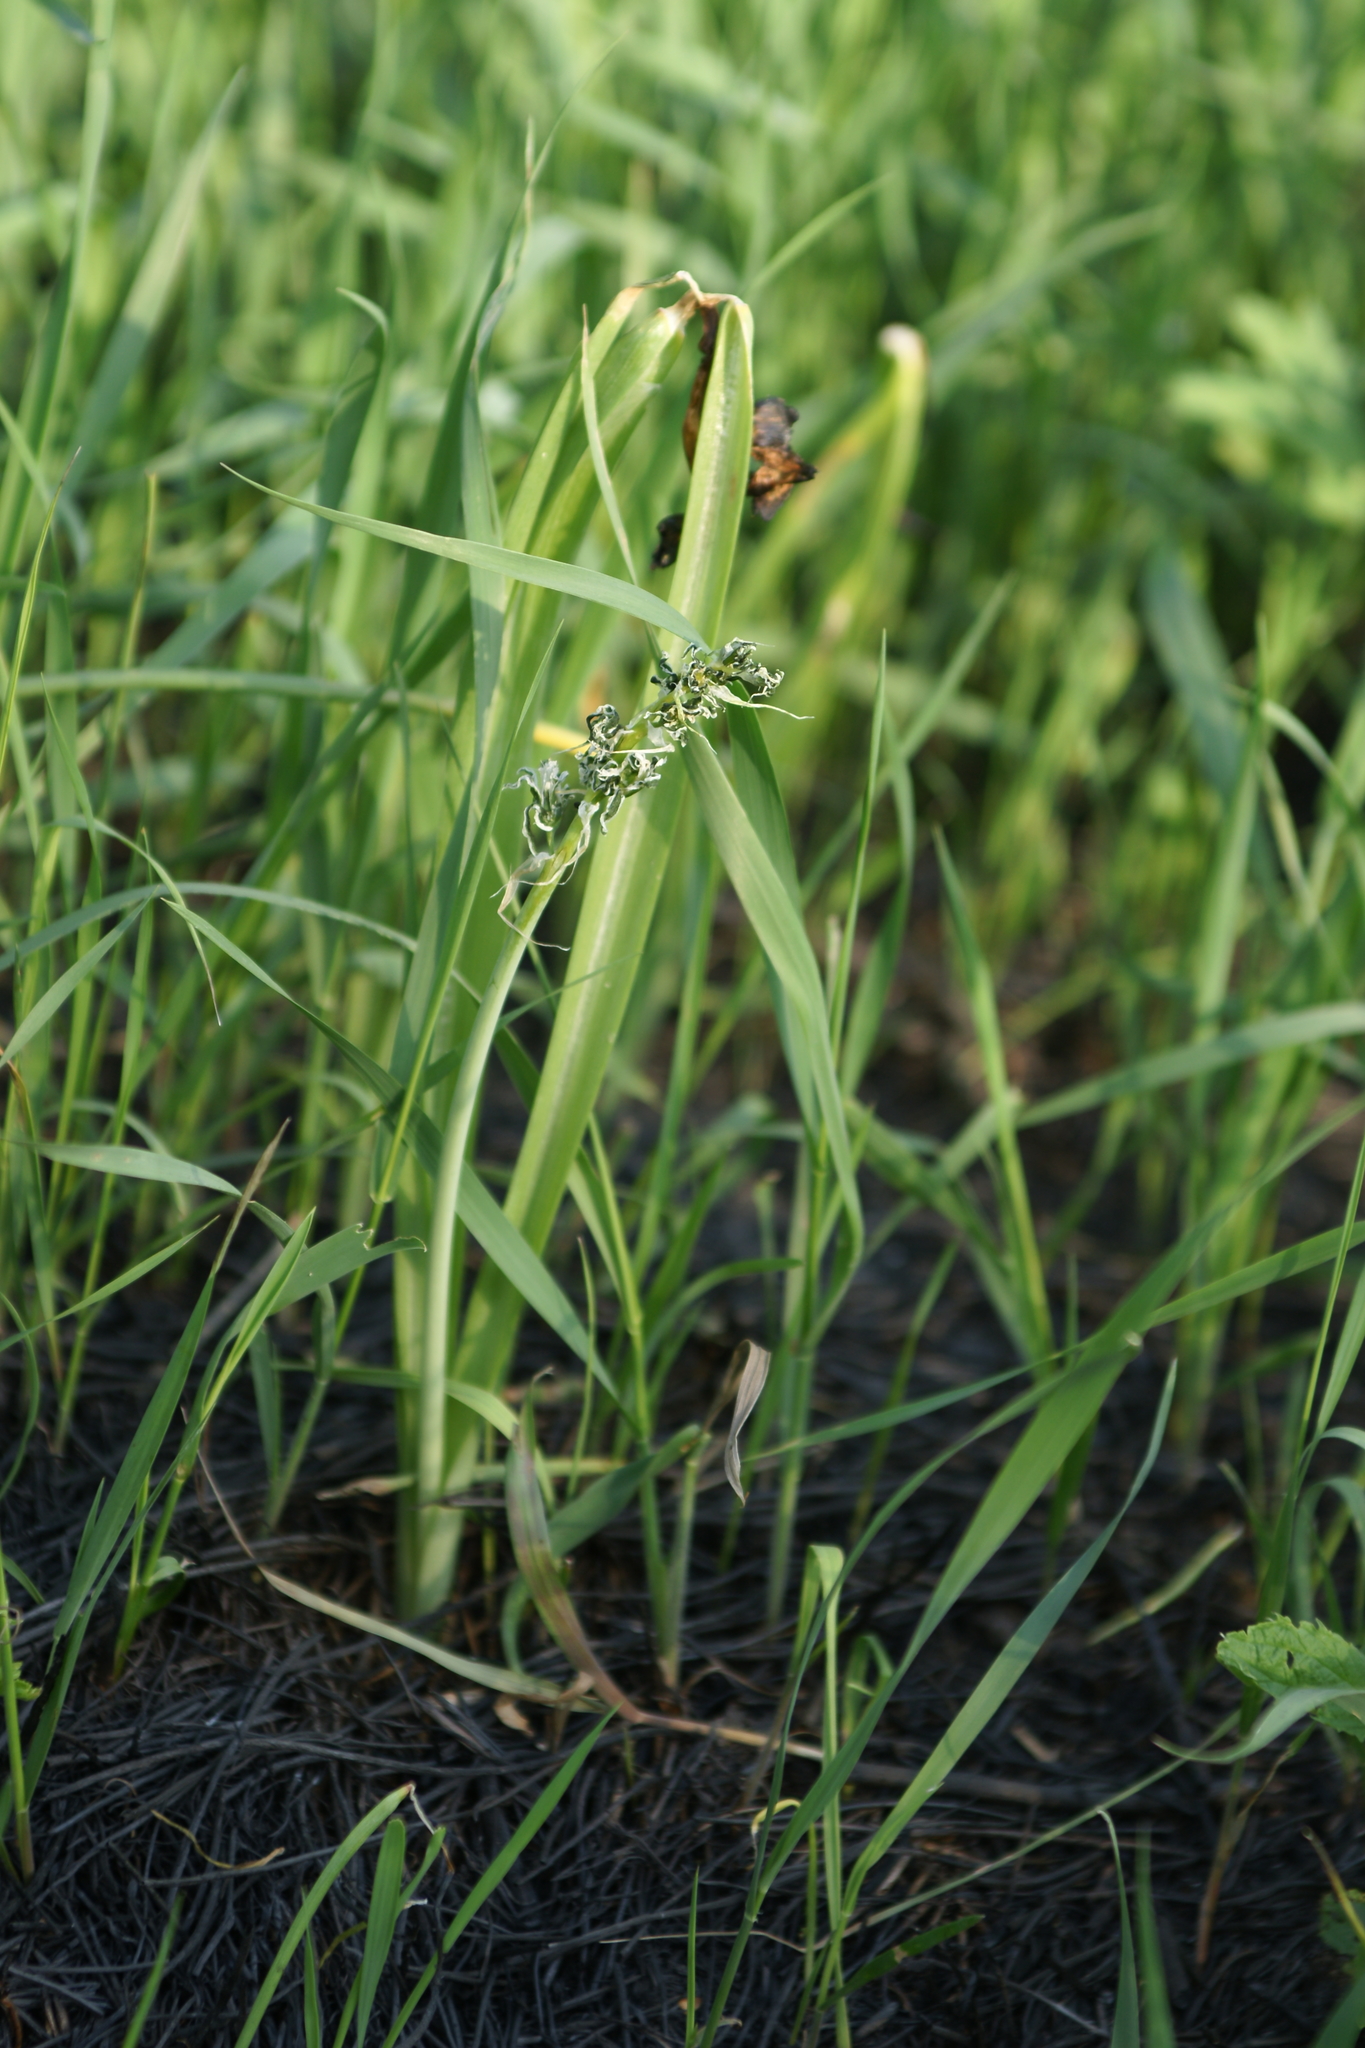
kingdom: Plantae
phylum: Tracheophyta
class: Liliopsida
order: Asparagales
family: Asparagaceae
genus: Ornithogalum
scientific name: Ornithogalum boucheanum
